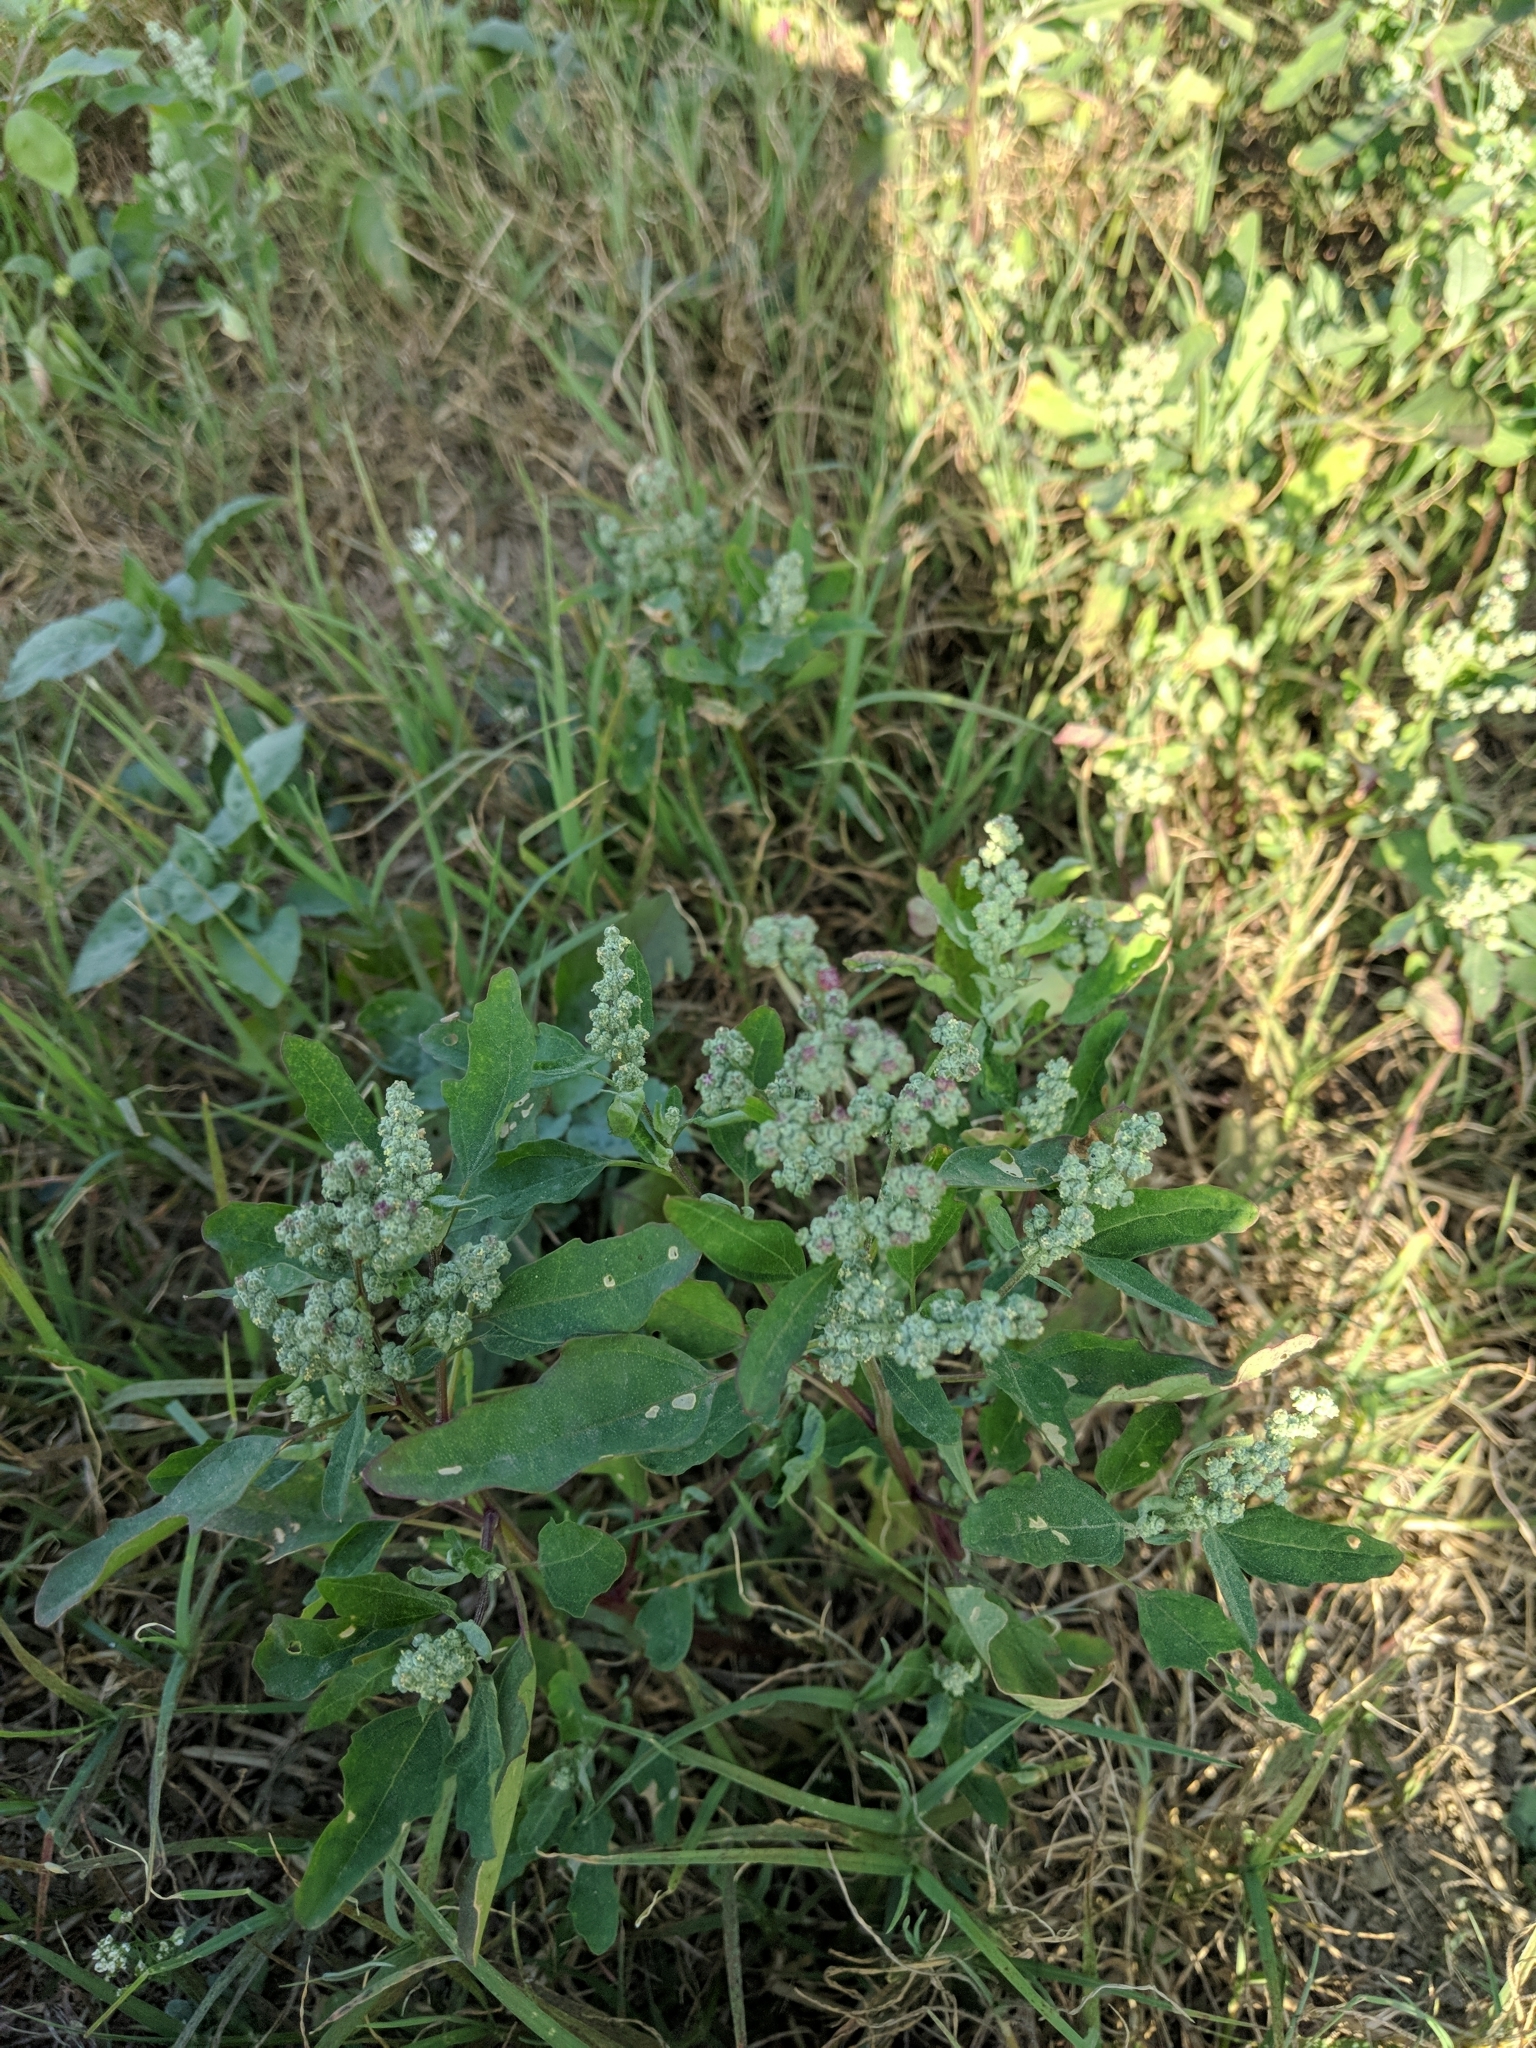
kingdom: Plantae
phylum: Tracheophyta
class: Magnoliopsida
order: Caryophyllales
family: Amaranthaceae
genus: Chenopodium
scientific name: Chenopodium ficifolium
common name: Fig-leaved goosefoot
